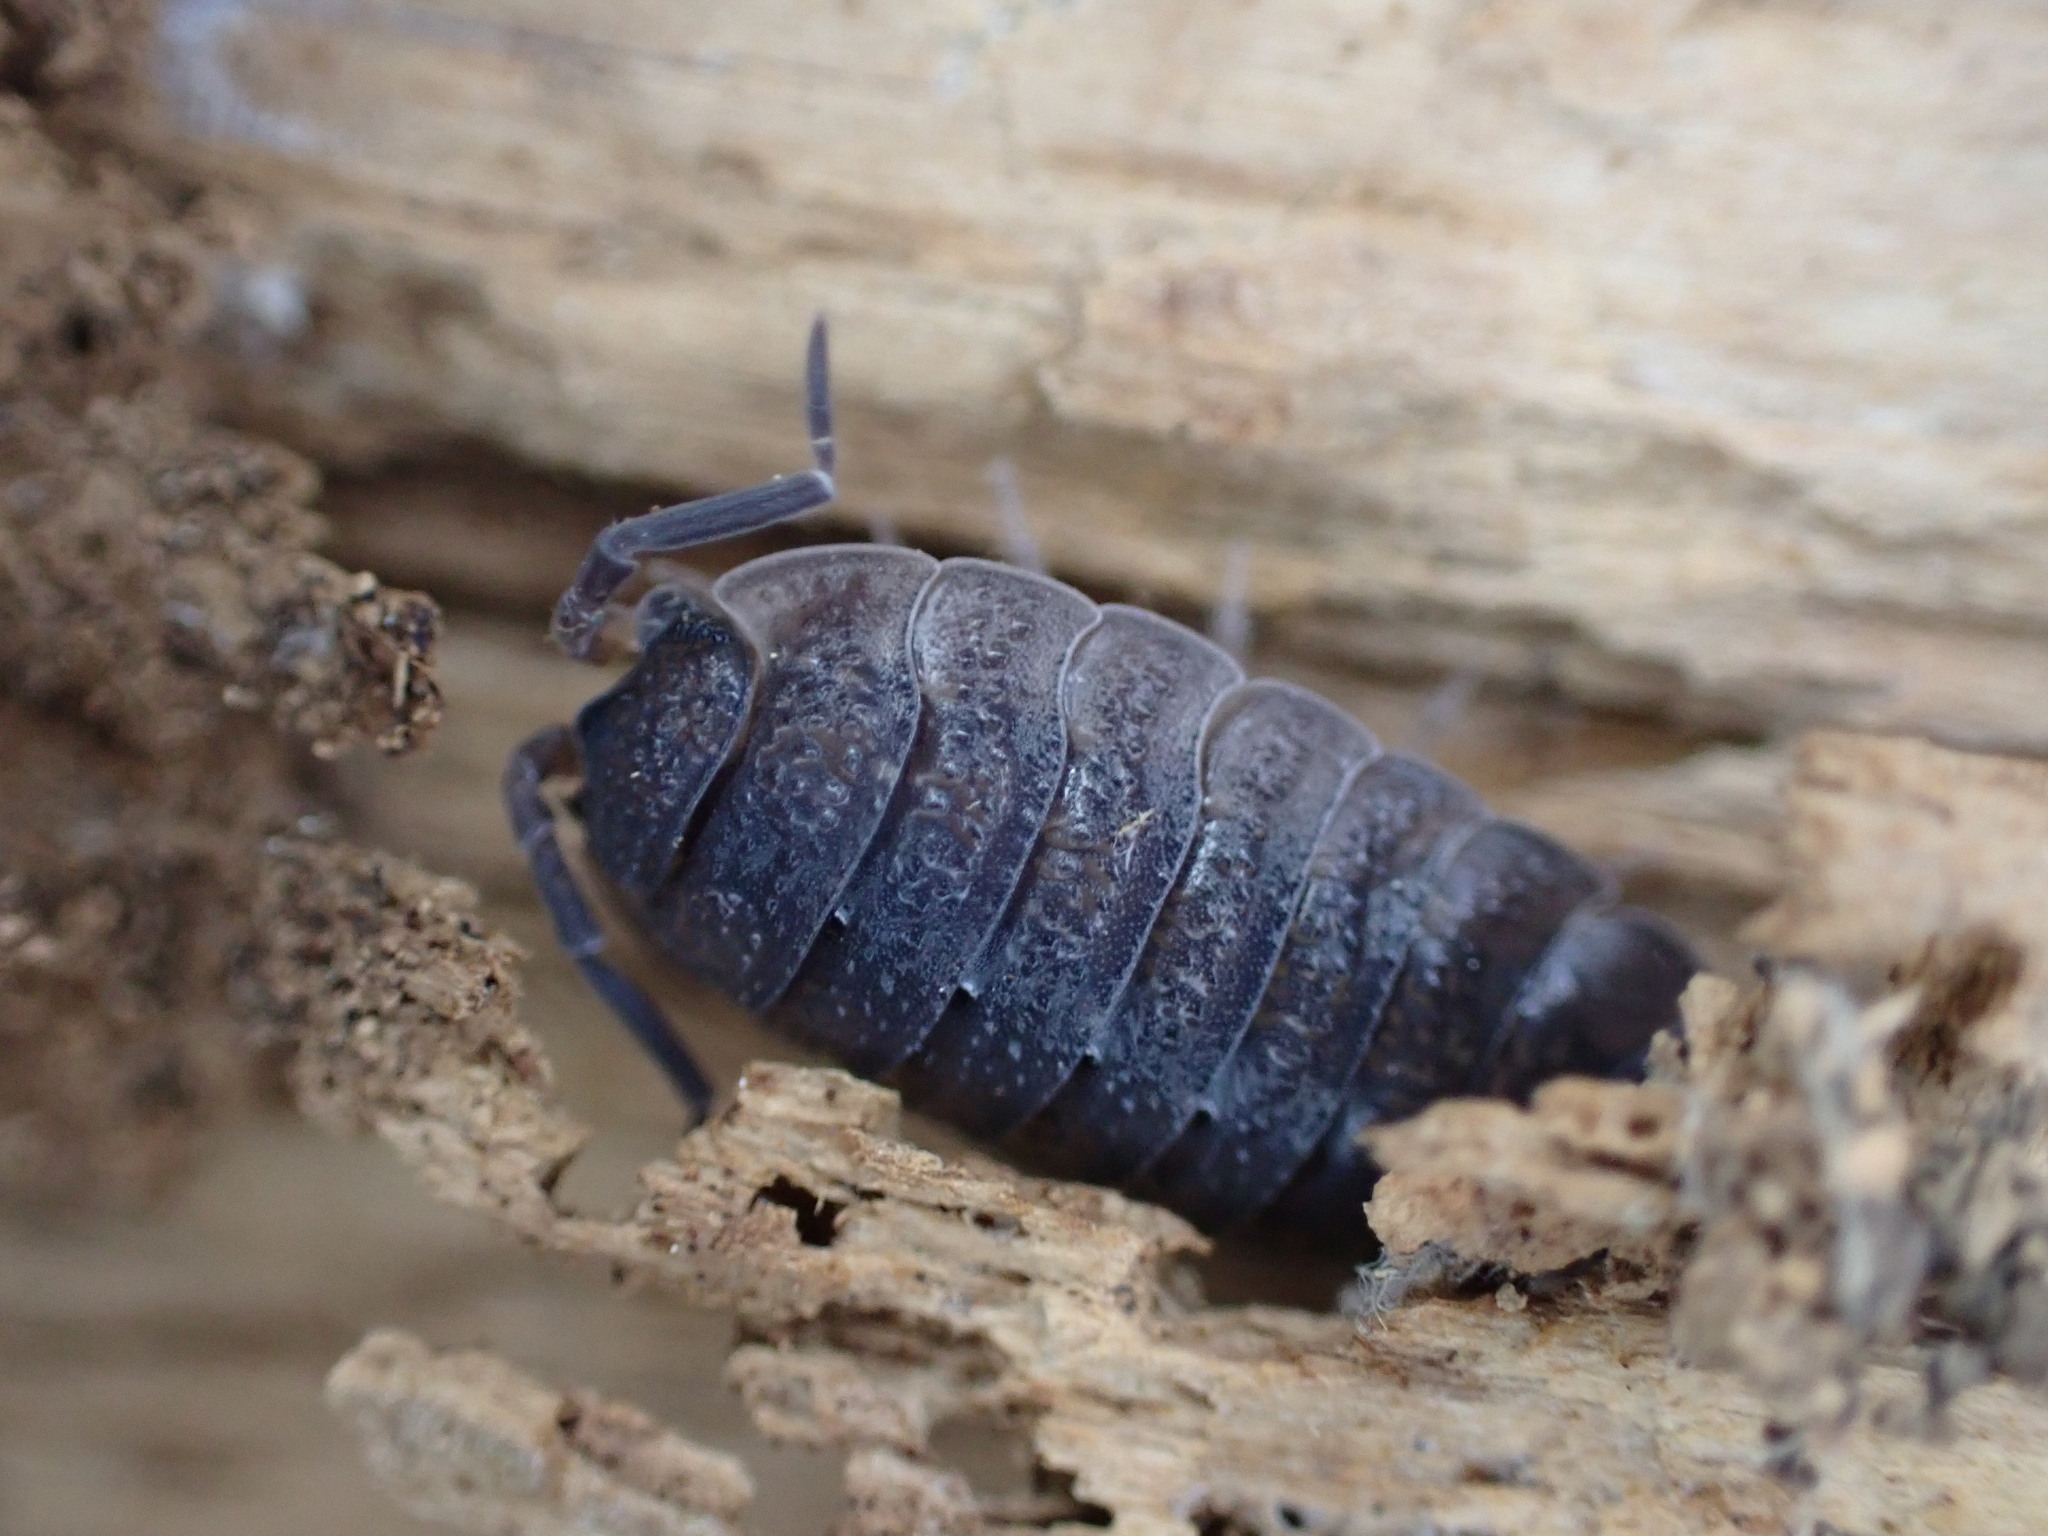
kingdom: Animalia
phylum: Arthropoda
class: Malacostraca
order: Isopoda
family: Porcellionidae
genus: Porcellio
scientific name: Porcellio scaber
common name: Common rough woodlouse
